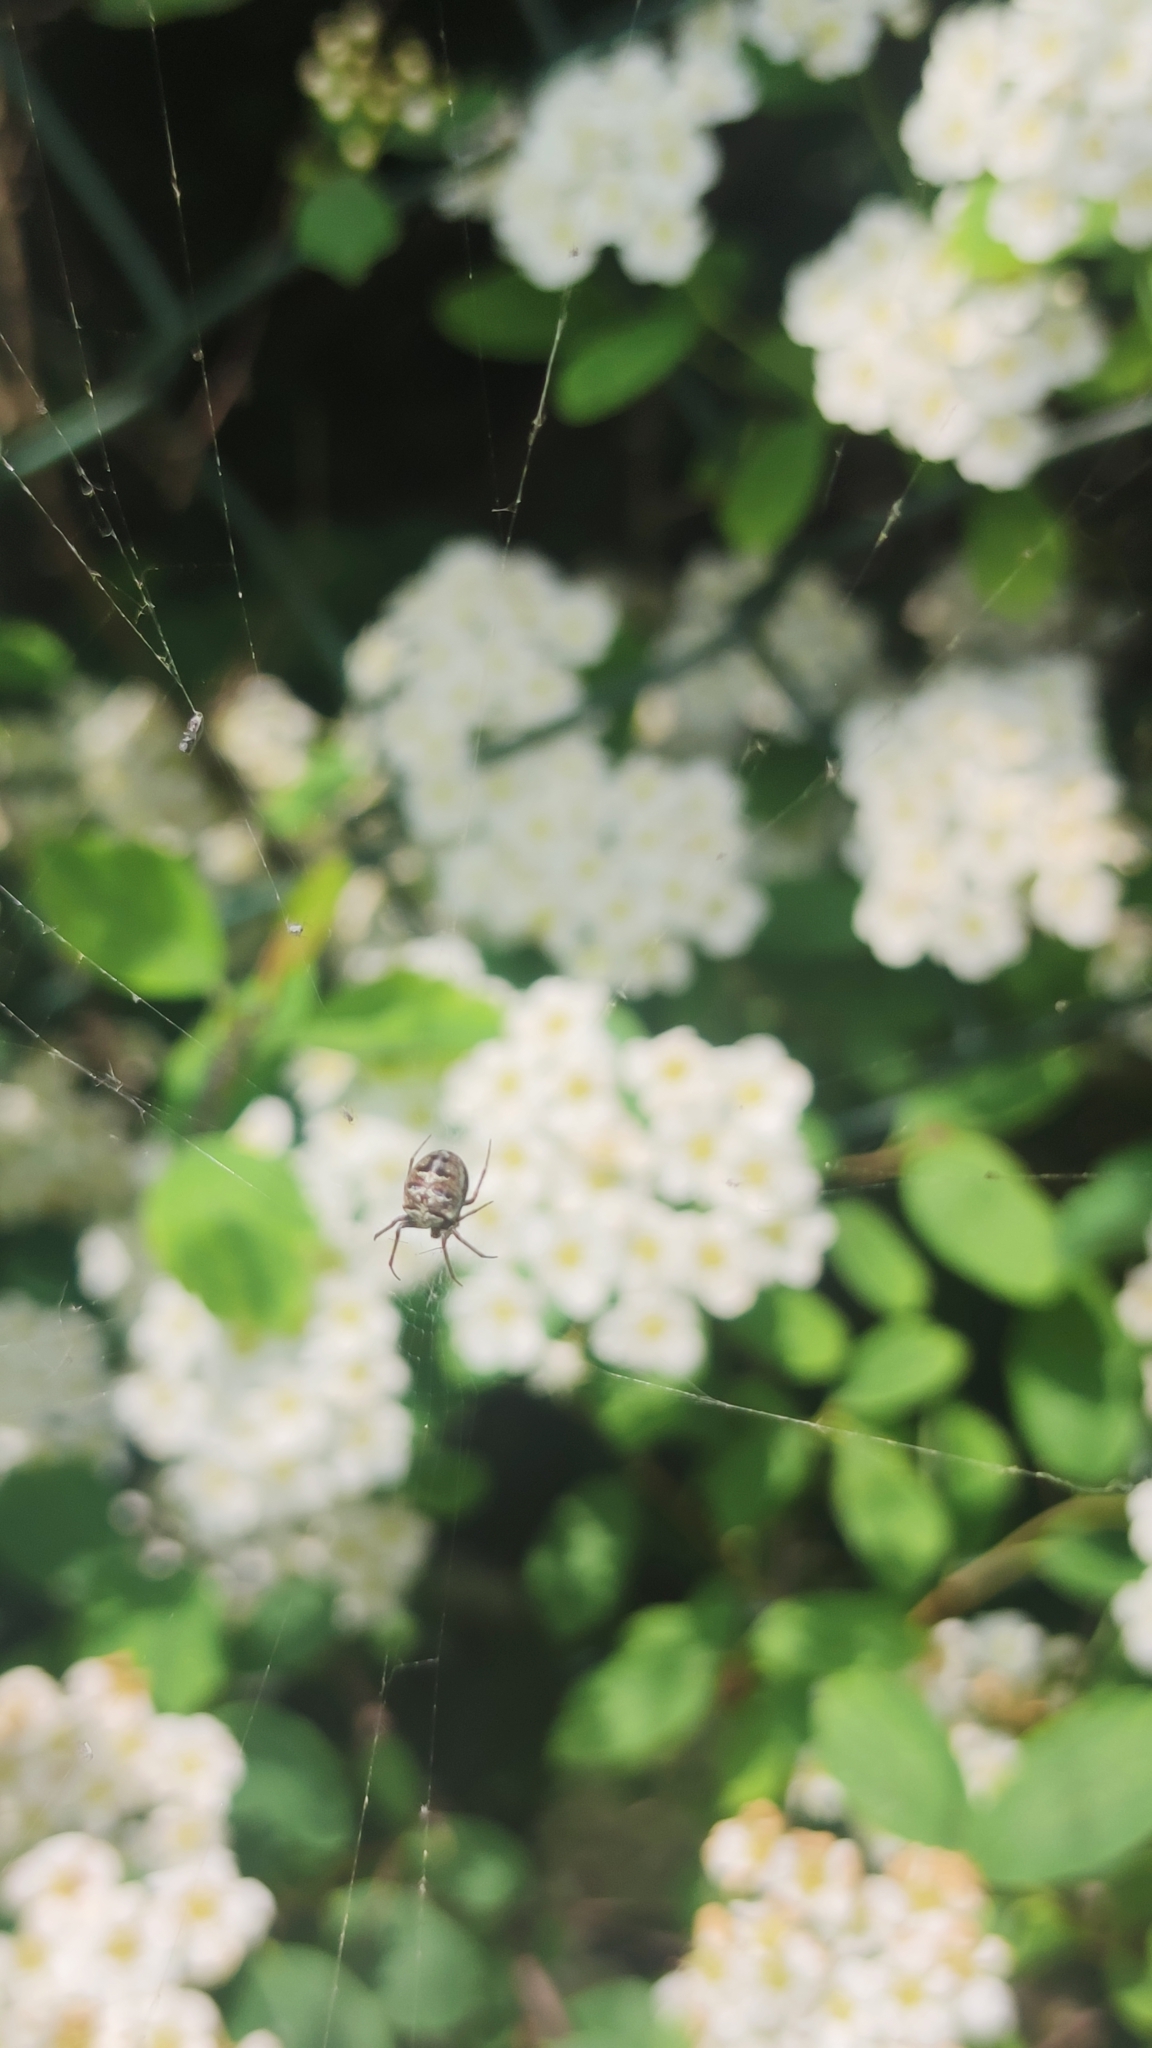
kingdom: Animalia
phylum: Arthropoda
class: Arachnida
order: Araneae
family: Araneidae
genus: Zilla
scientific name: Zilla diodia
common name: Zilla diodia
